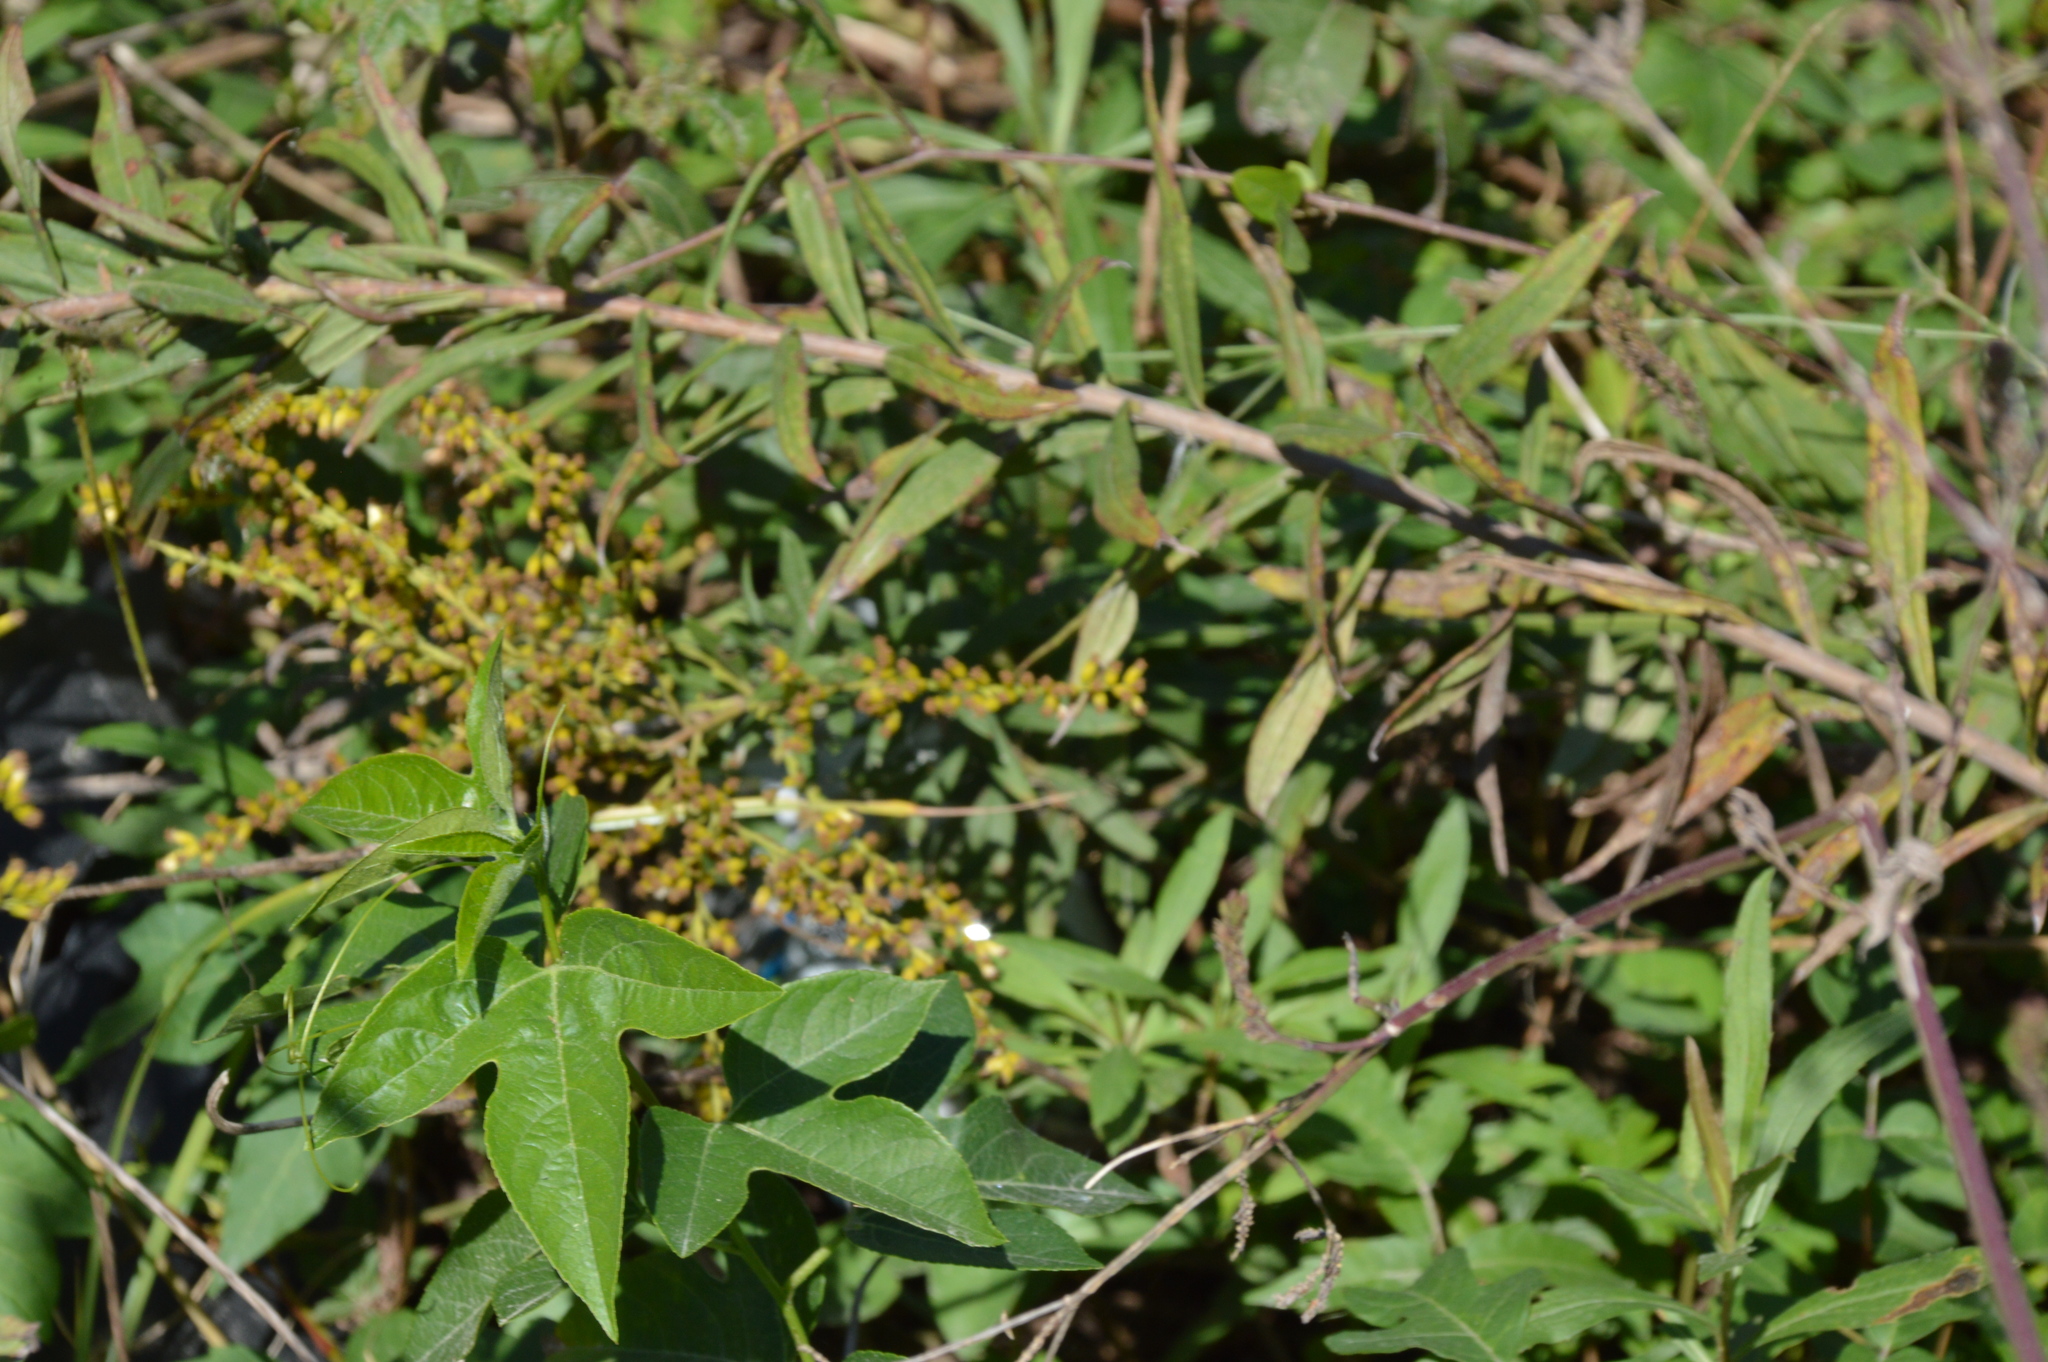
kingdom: Plantae
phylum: Tracheophyta
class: Magnoliopsida
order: Malpighiales
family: Passifloraceae
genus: Passiflora
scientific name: Passiflora incarnata
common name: Apricot-vine
